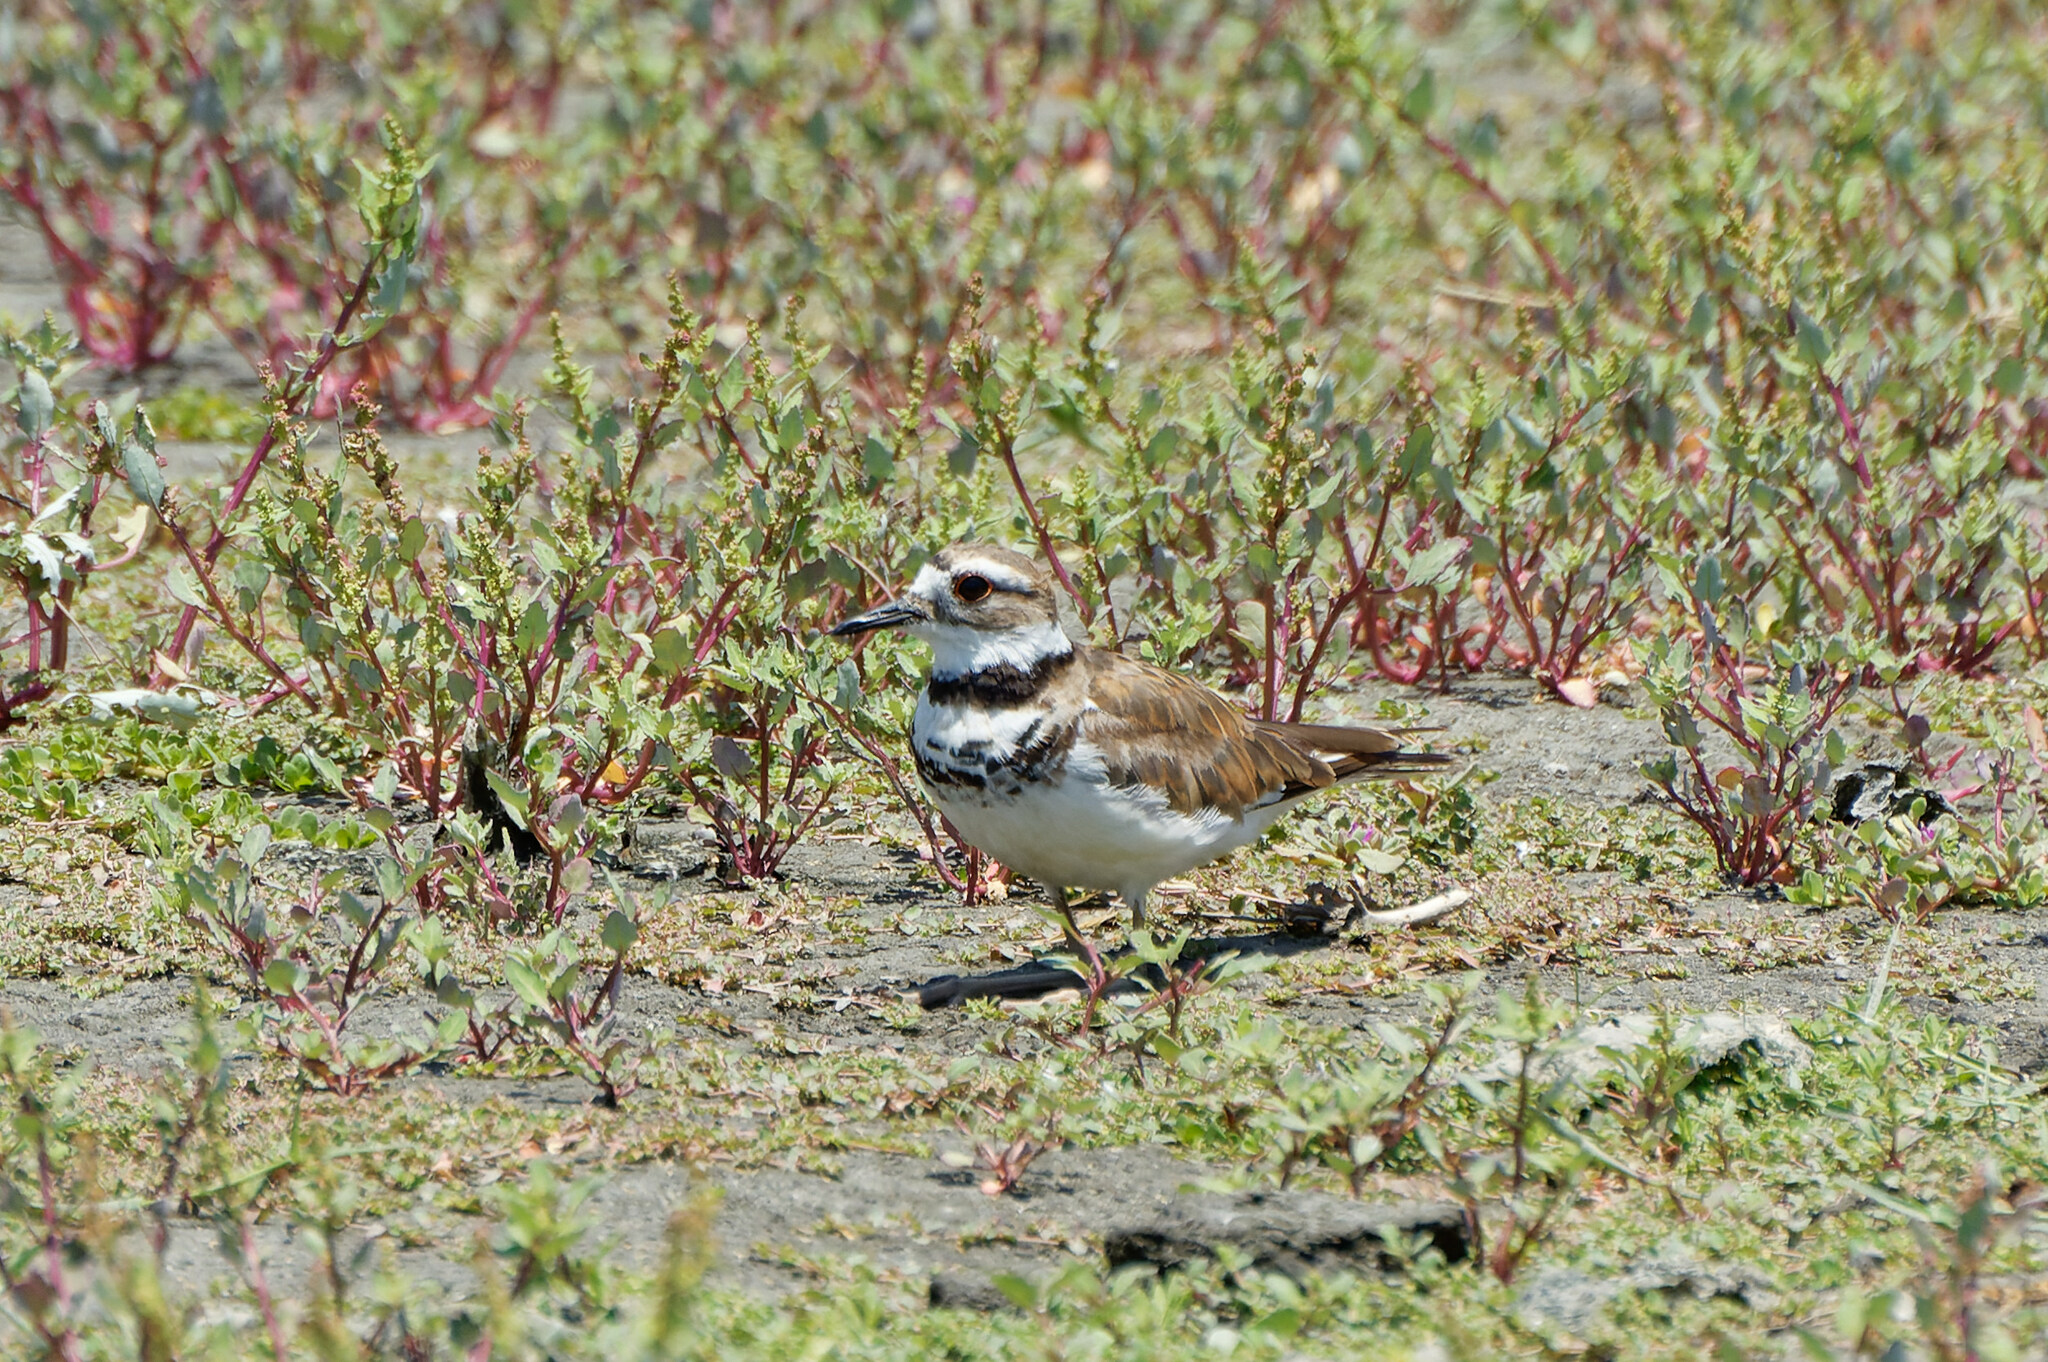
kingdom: Animalia
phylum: Chordata
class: Aves
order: Charadriiformes
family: Charadriidae
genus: Charadrius
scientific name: Charadrius vociferus
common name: Killdeer
